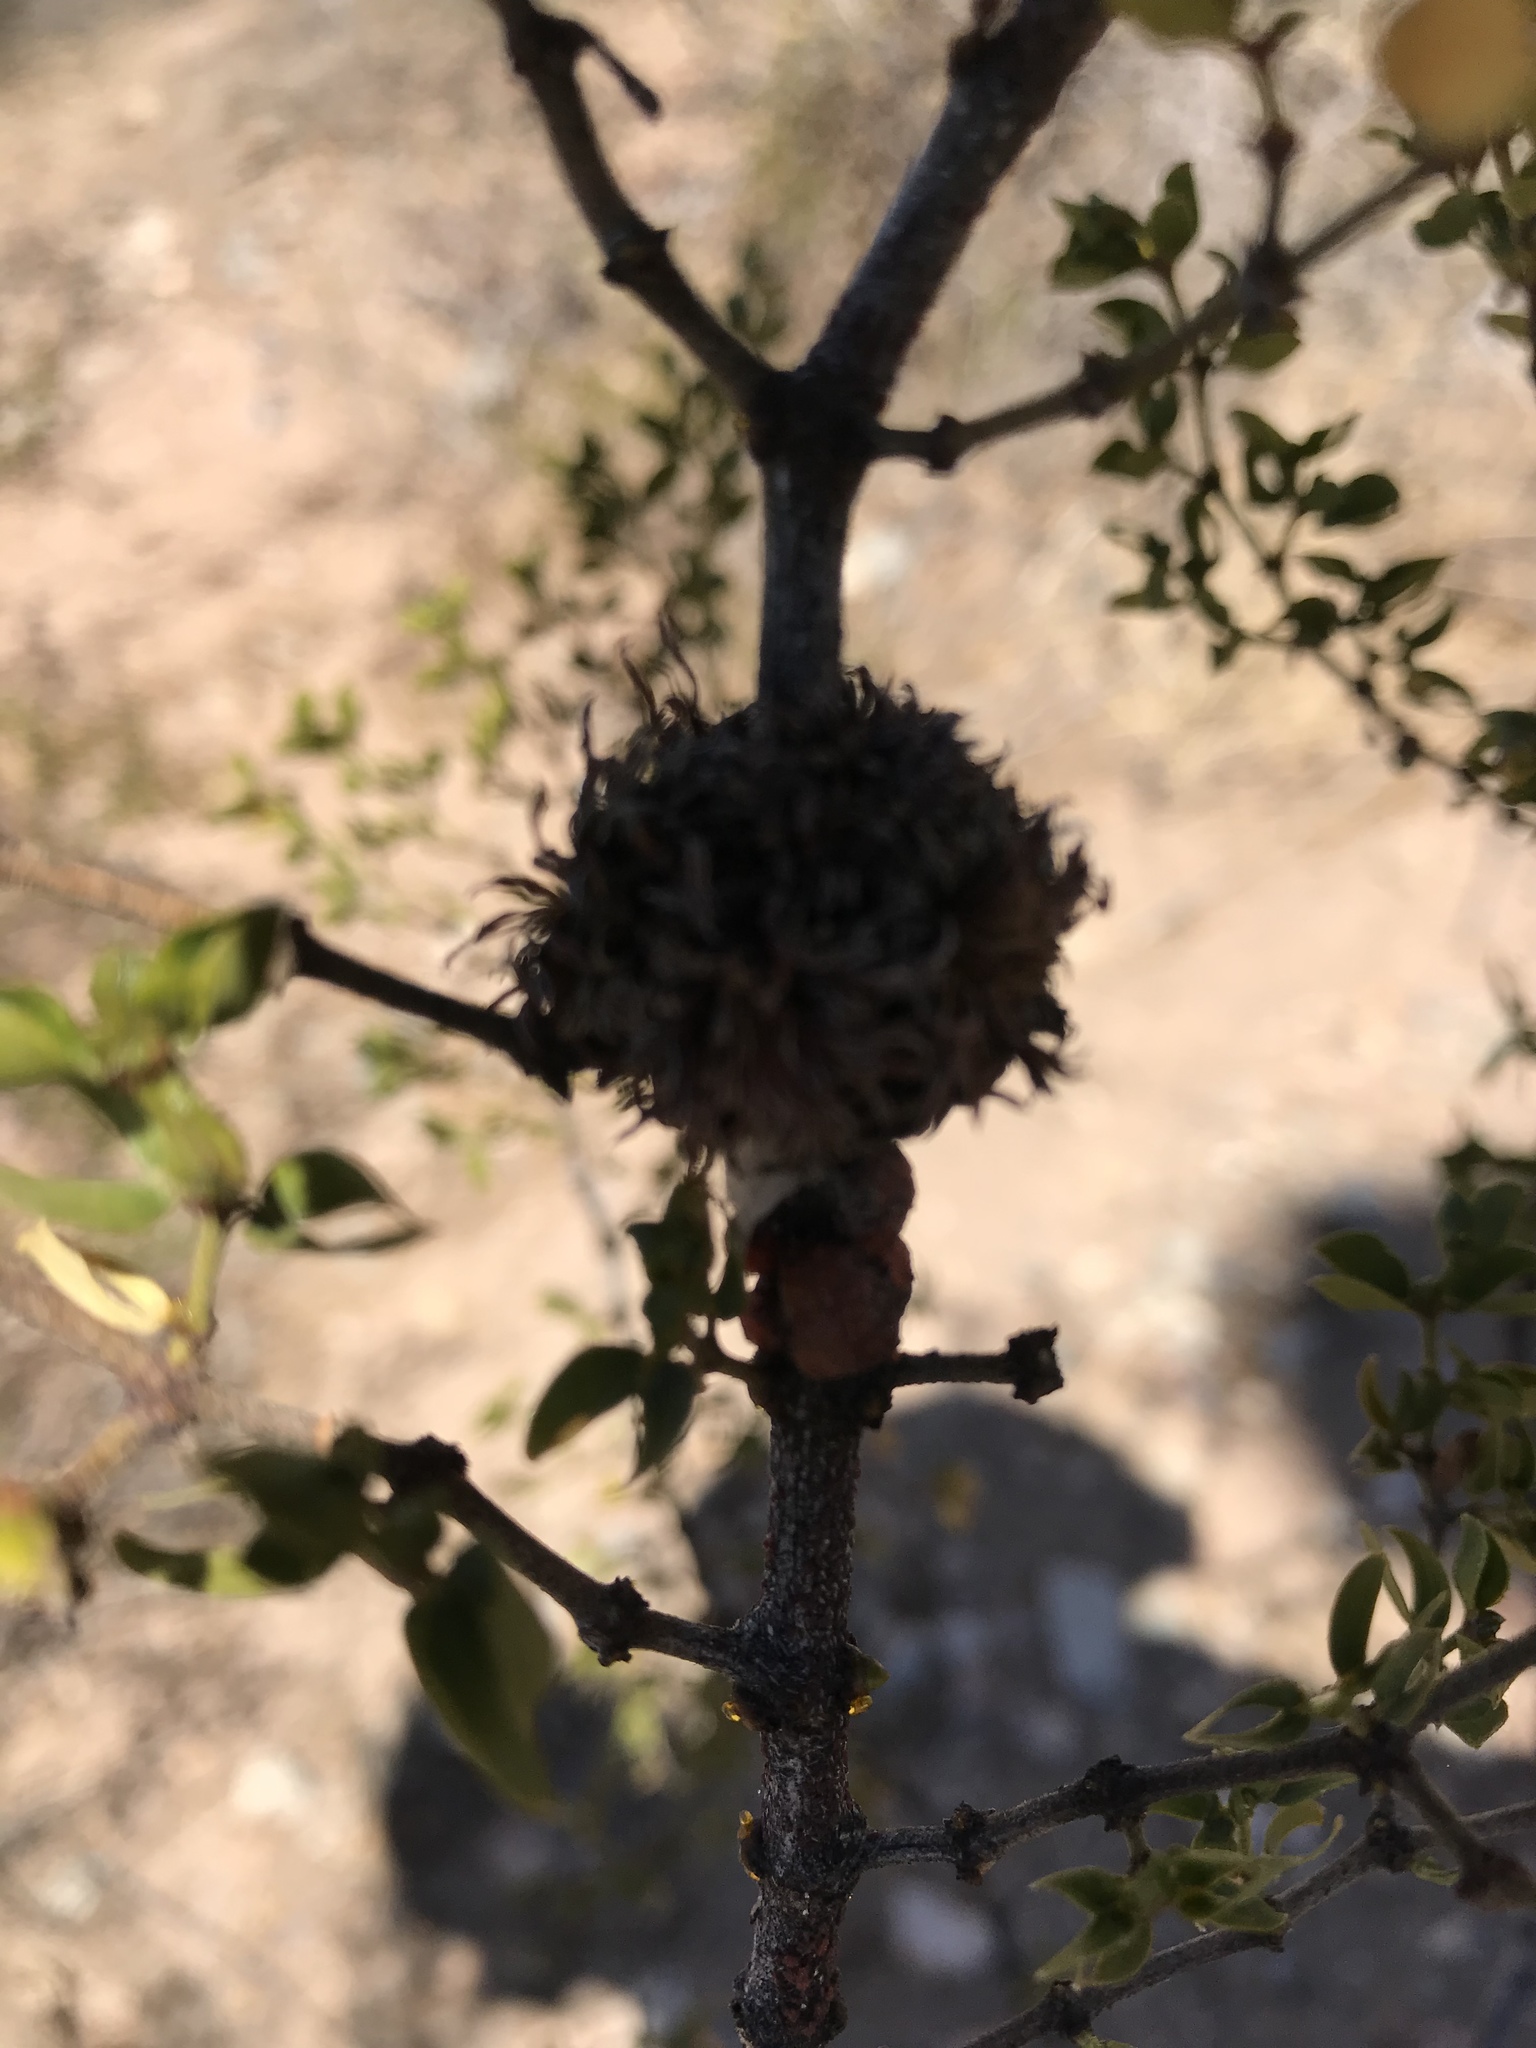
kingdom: Animalia
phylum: Arthropoda
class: Insecta
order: Diptera
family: Cecidomyiidae
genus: Asphondylia
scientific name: Asphondylia auripila
